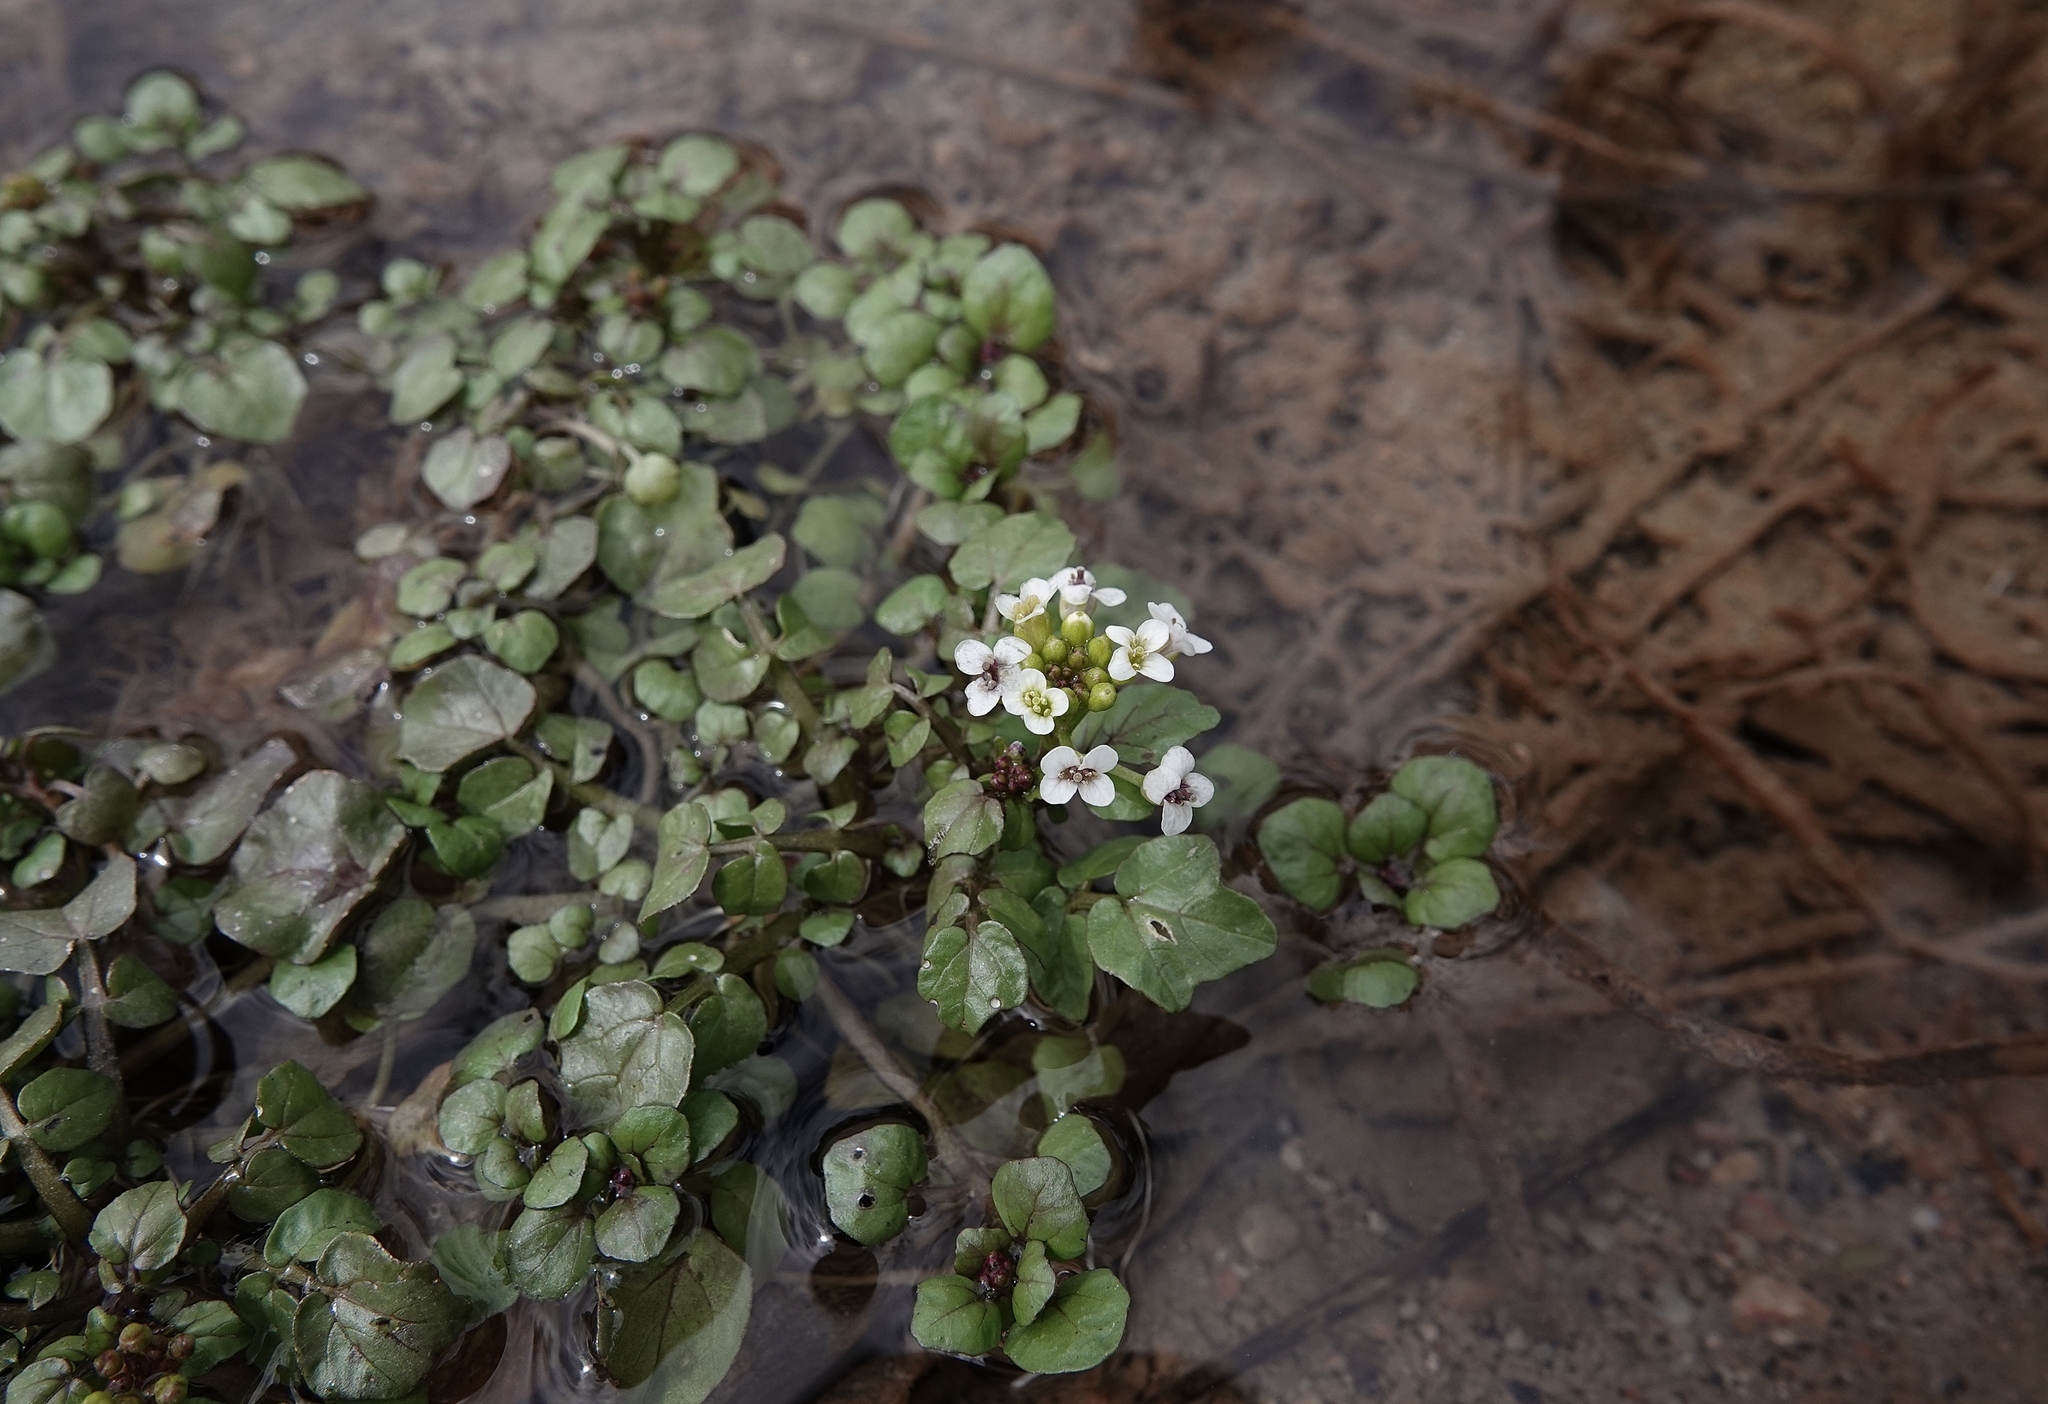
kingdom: Plantae
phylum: Tracheophyta
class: Magnoliopsida
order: Brassicales
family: Brassicaceae
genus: Nasturtium
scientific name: Nasturtium officinale
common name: Watercress
